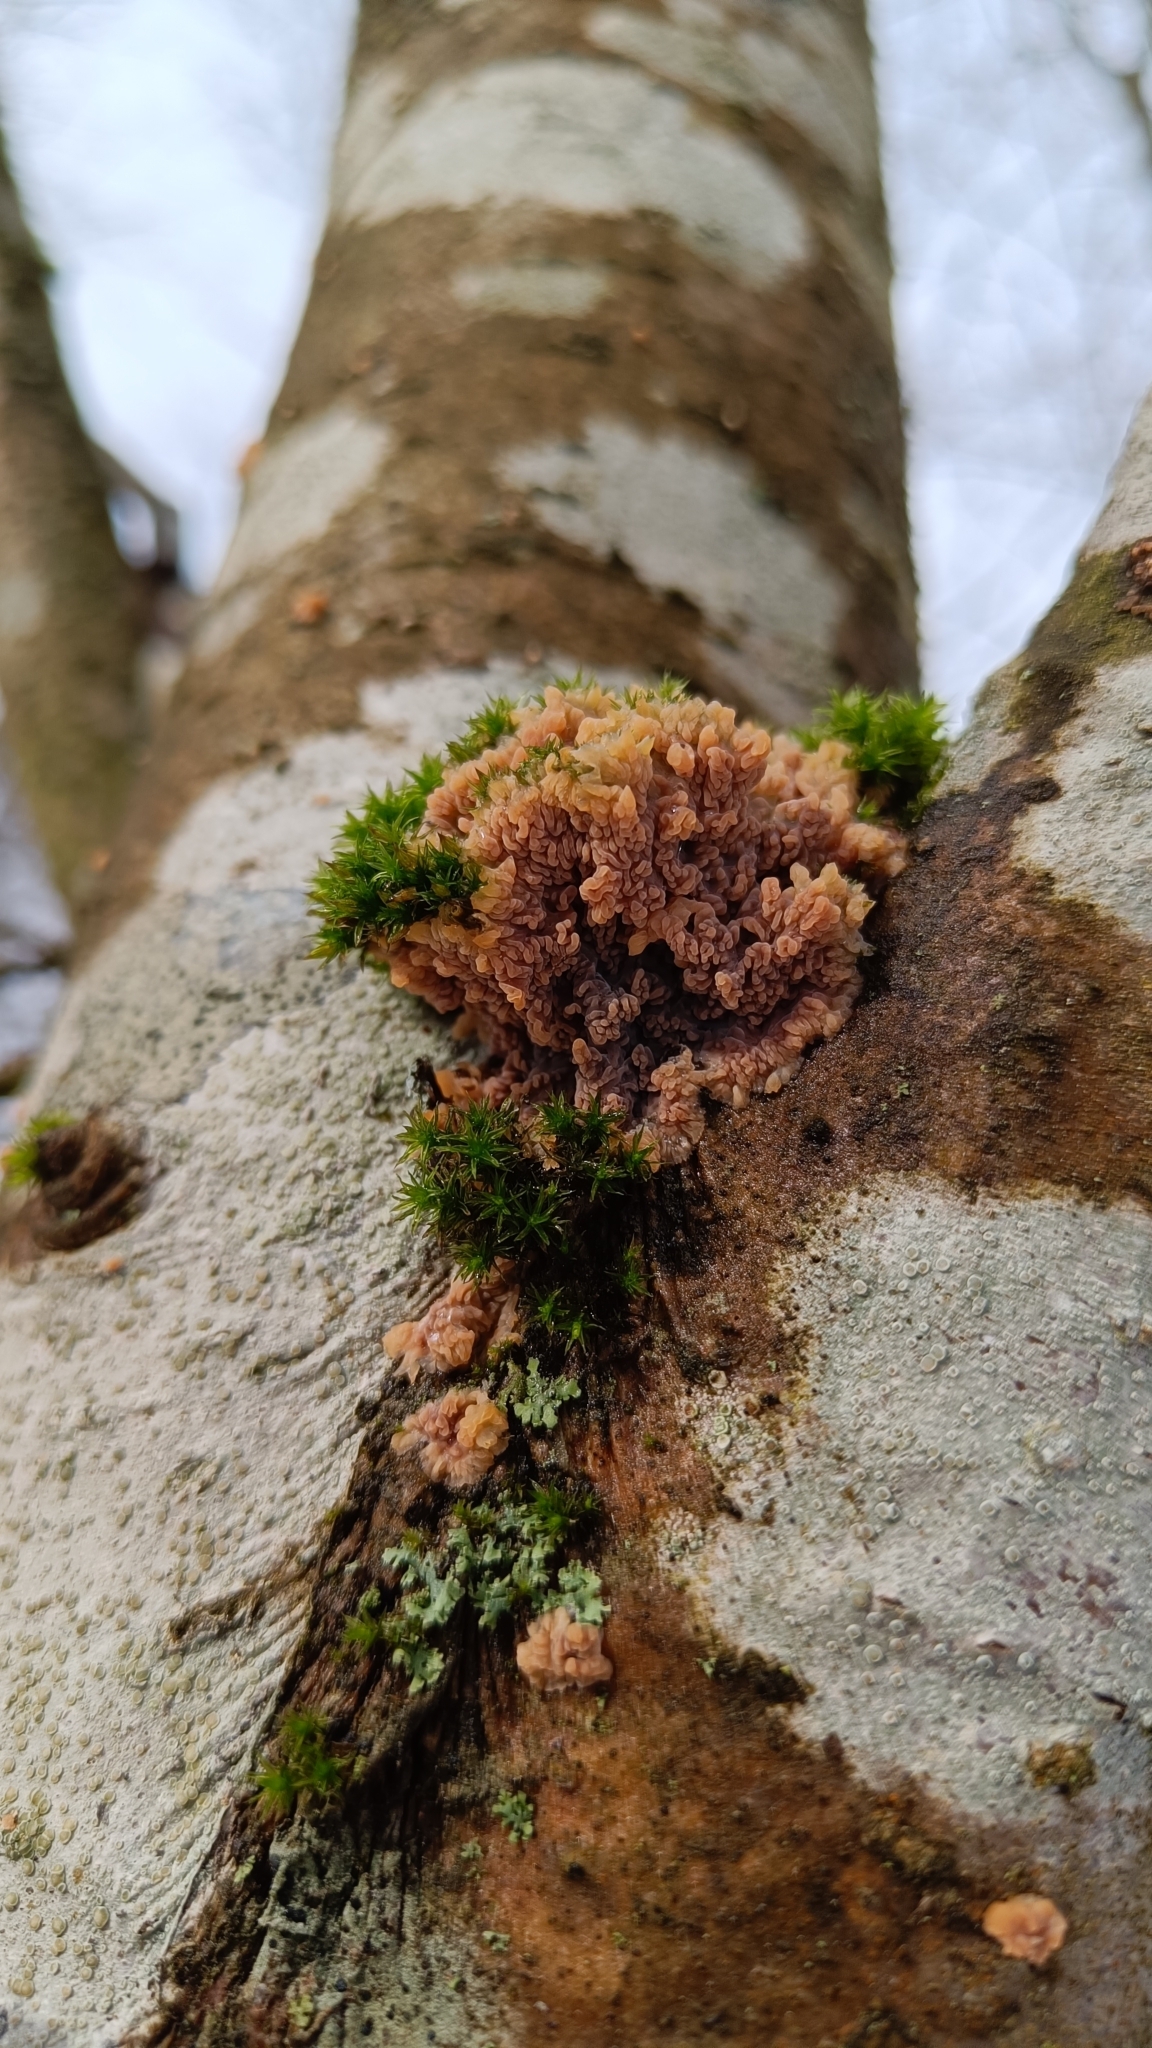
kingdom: Fungi
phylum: Basidiomycota
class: Agaricomycetes
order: Polyporales
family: Meruliaceae
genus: Phlebia
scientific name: Phlebia radiata
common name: Wrinkled crust
